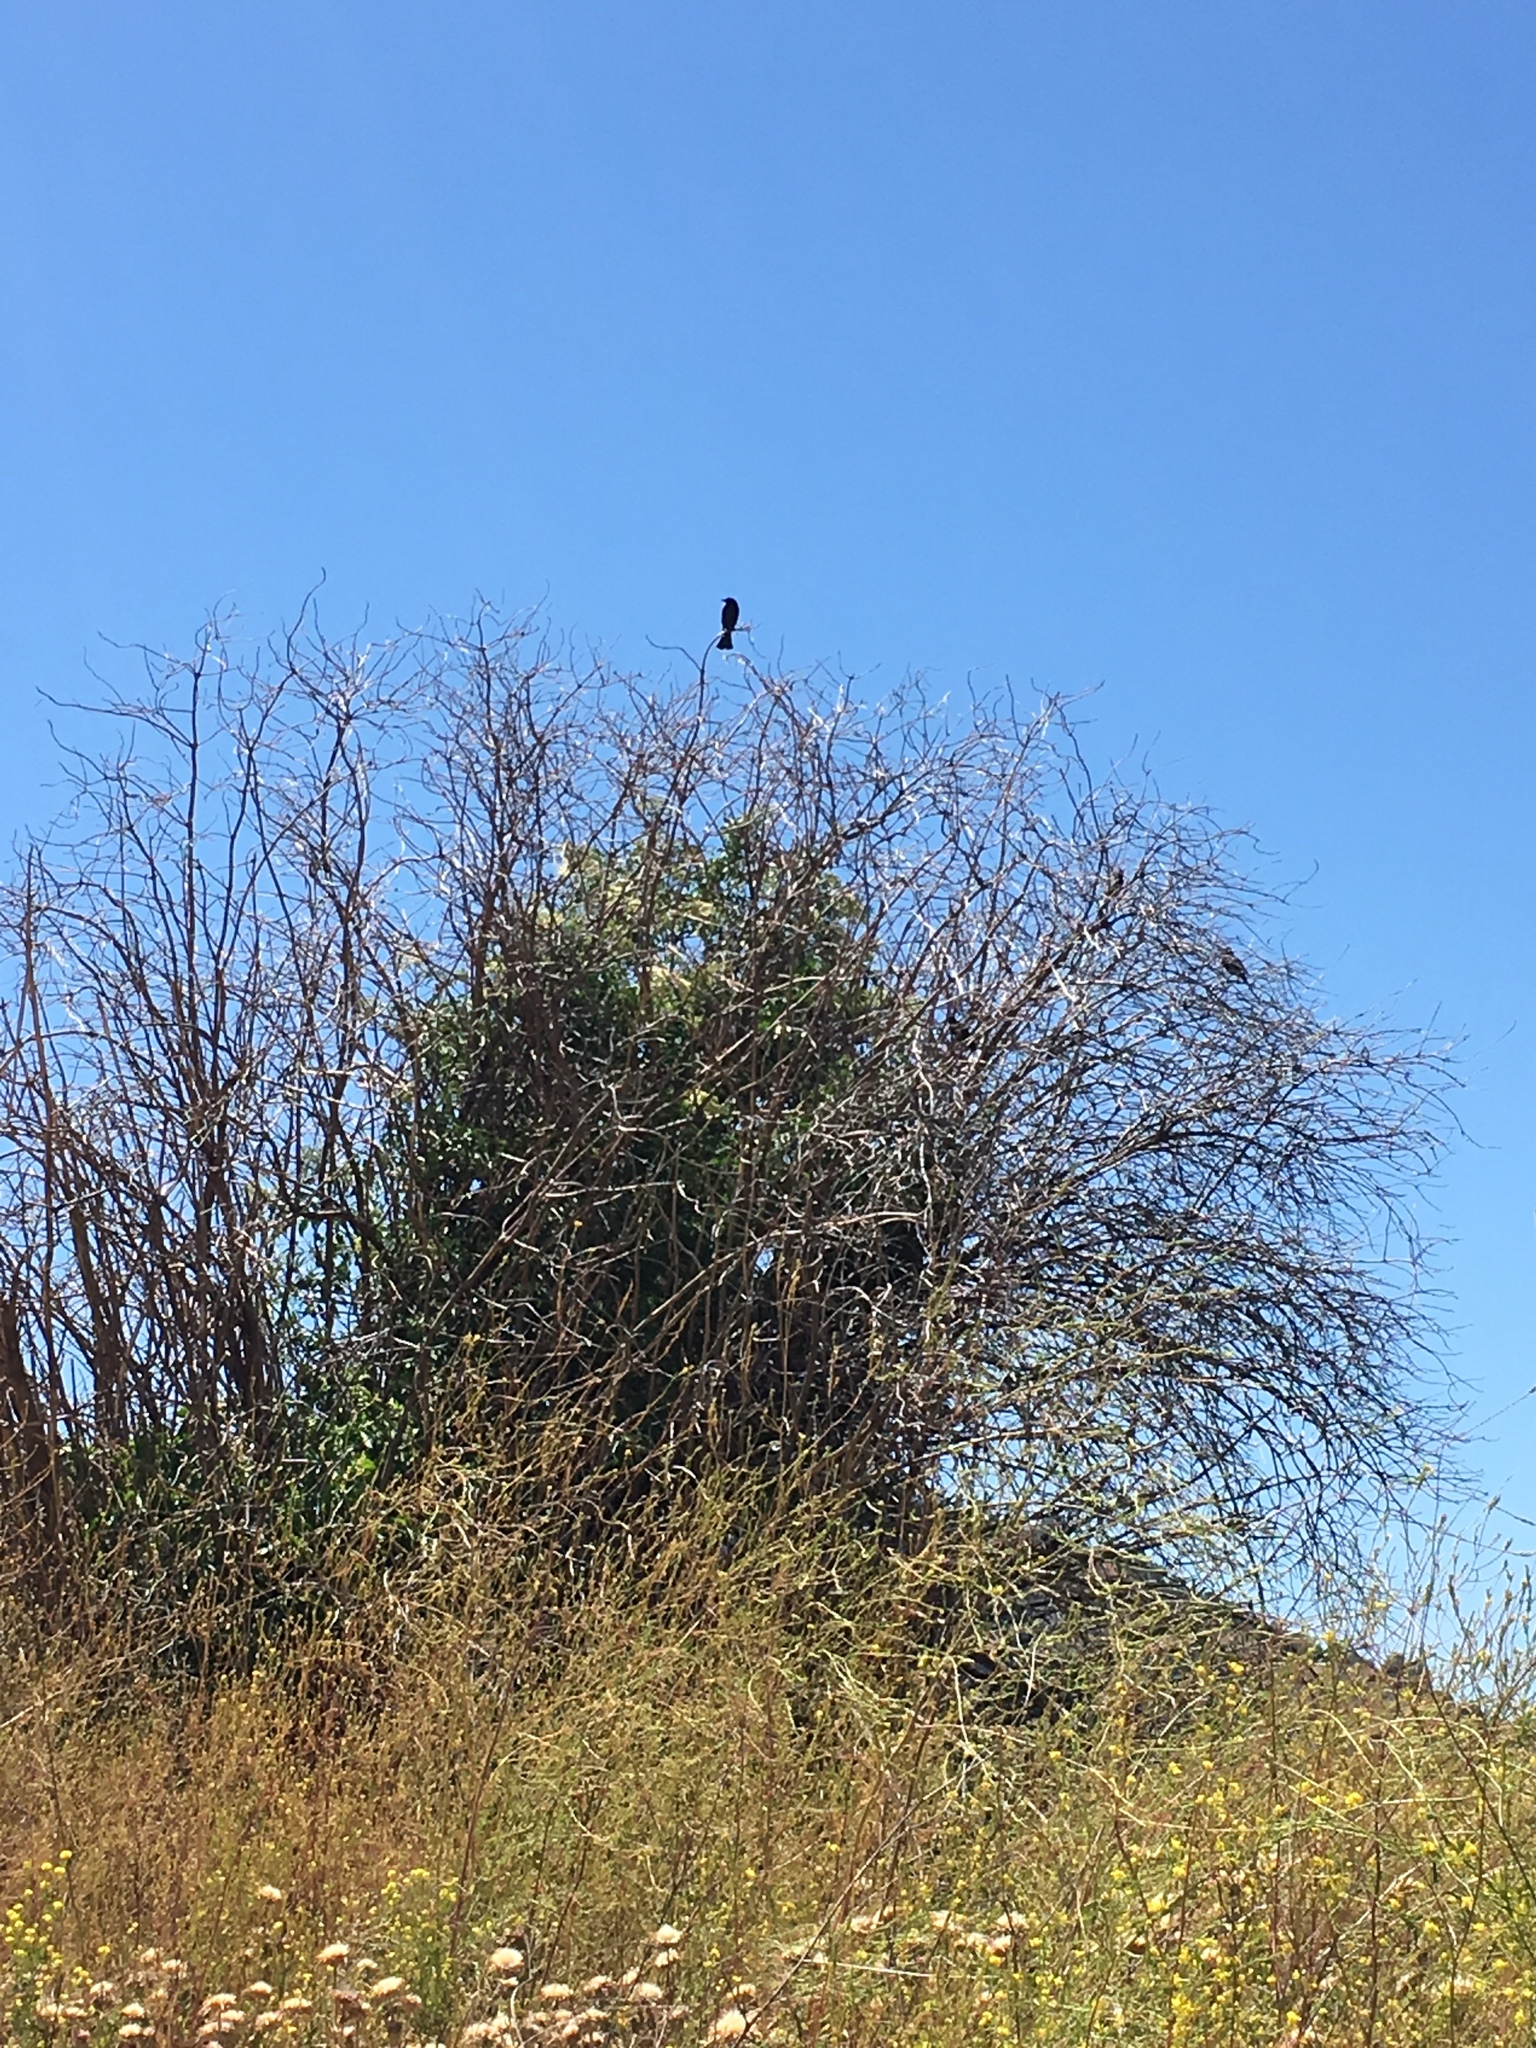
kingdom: Animalia
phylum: Chordata
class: Aves
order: Passeriformes
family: Icteridae
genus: Agelaius
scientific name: Agelaius phoeniceus
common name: Red-winged blackbird
